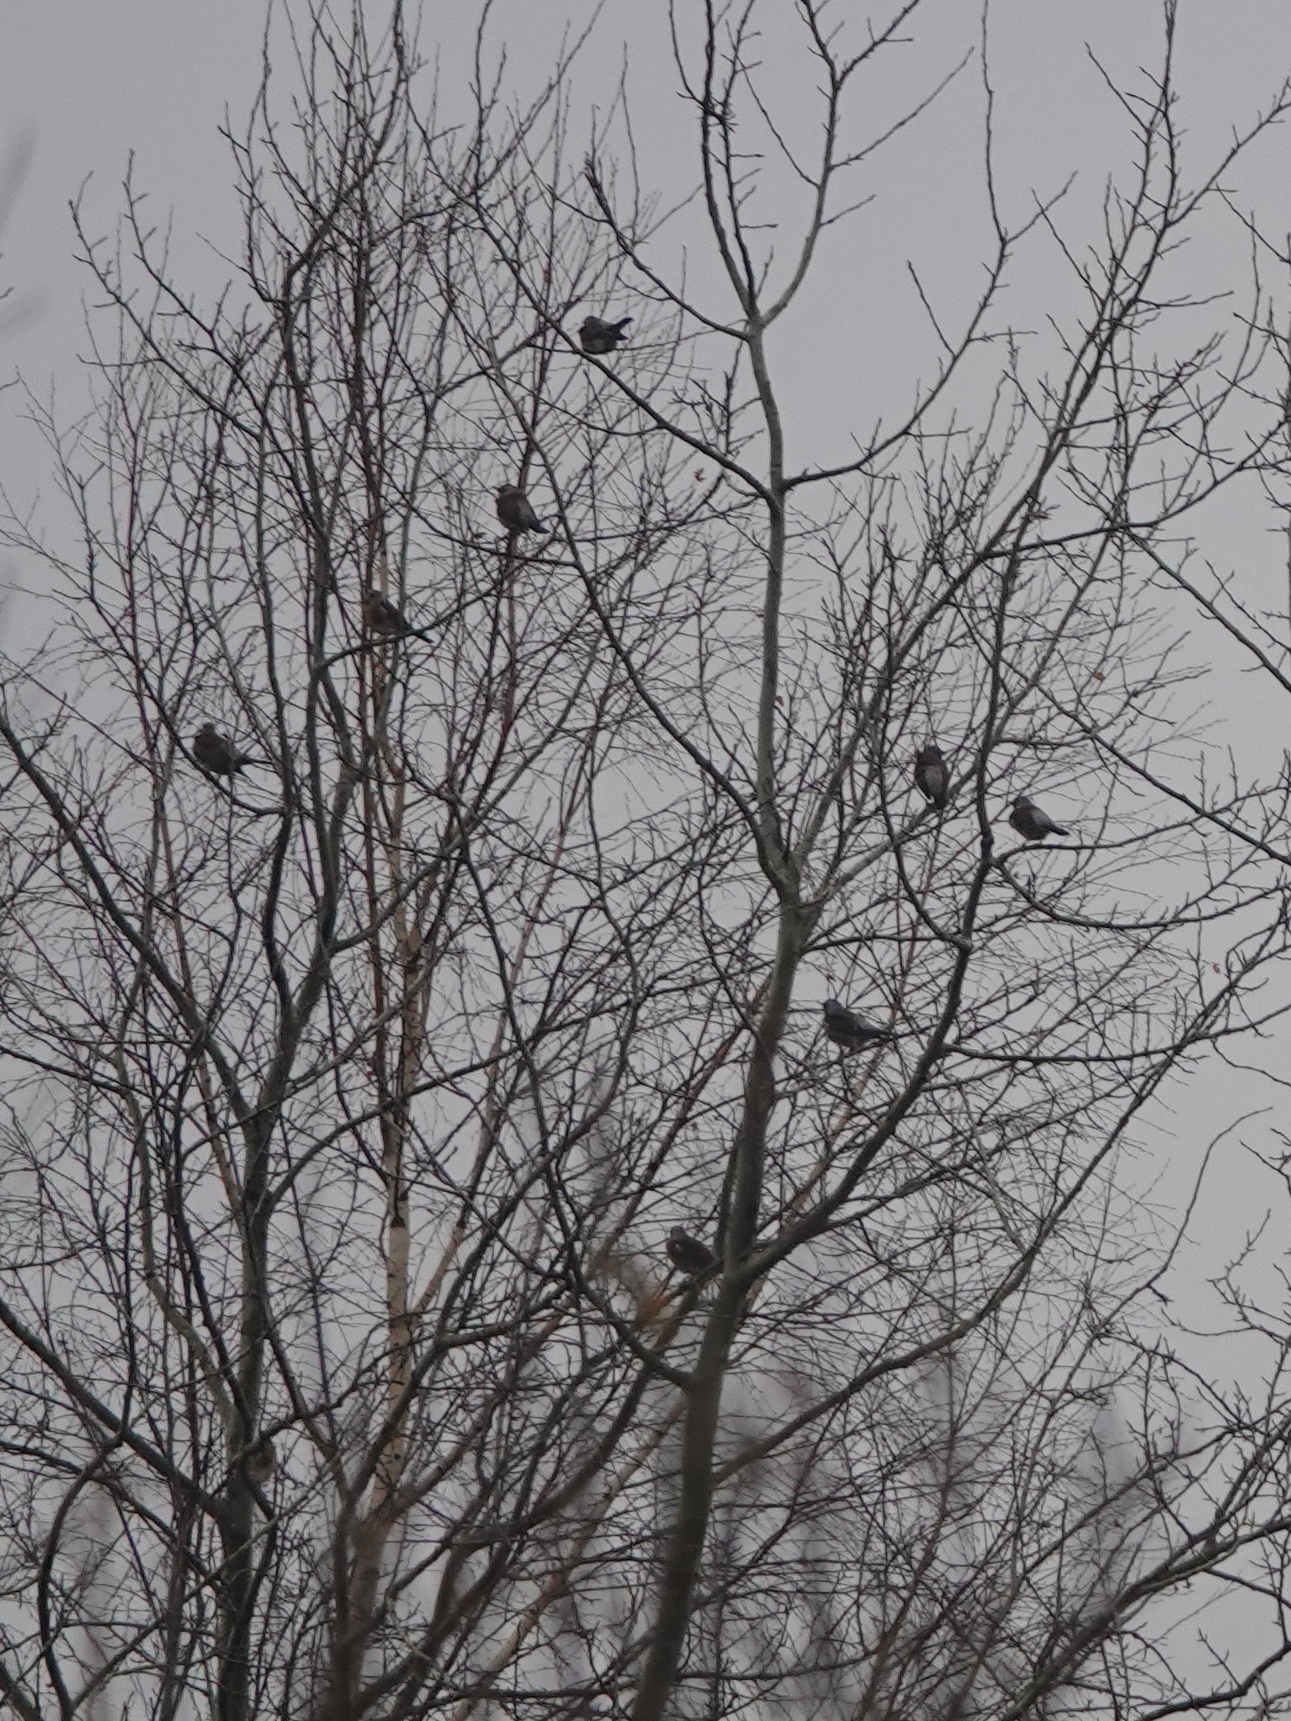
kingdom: Animalia
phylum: Chordata
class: Aves
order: Passeriformes
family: Turdidae
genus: Turdus
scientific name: Turdus pilaris
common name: Fieldfare
